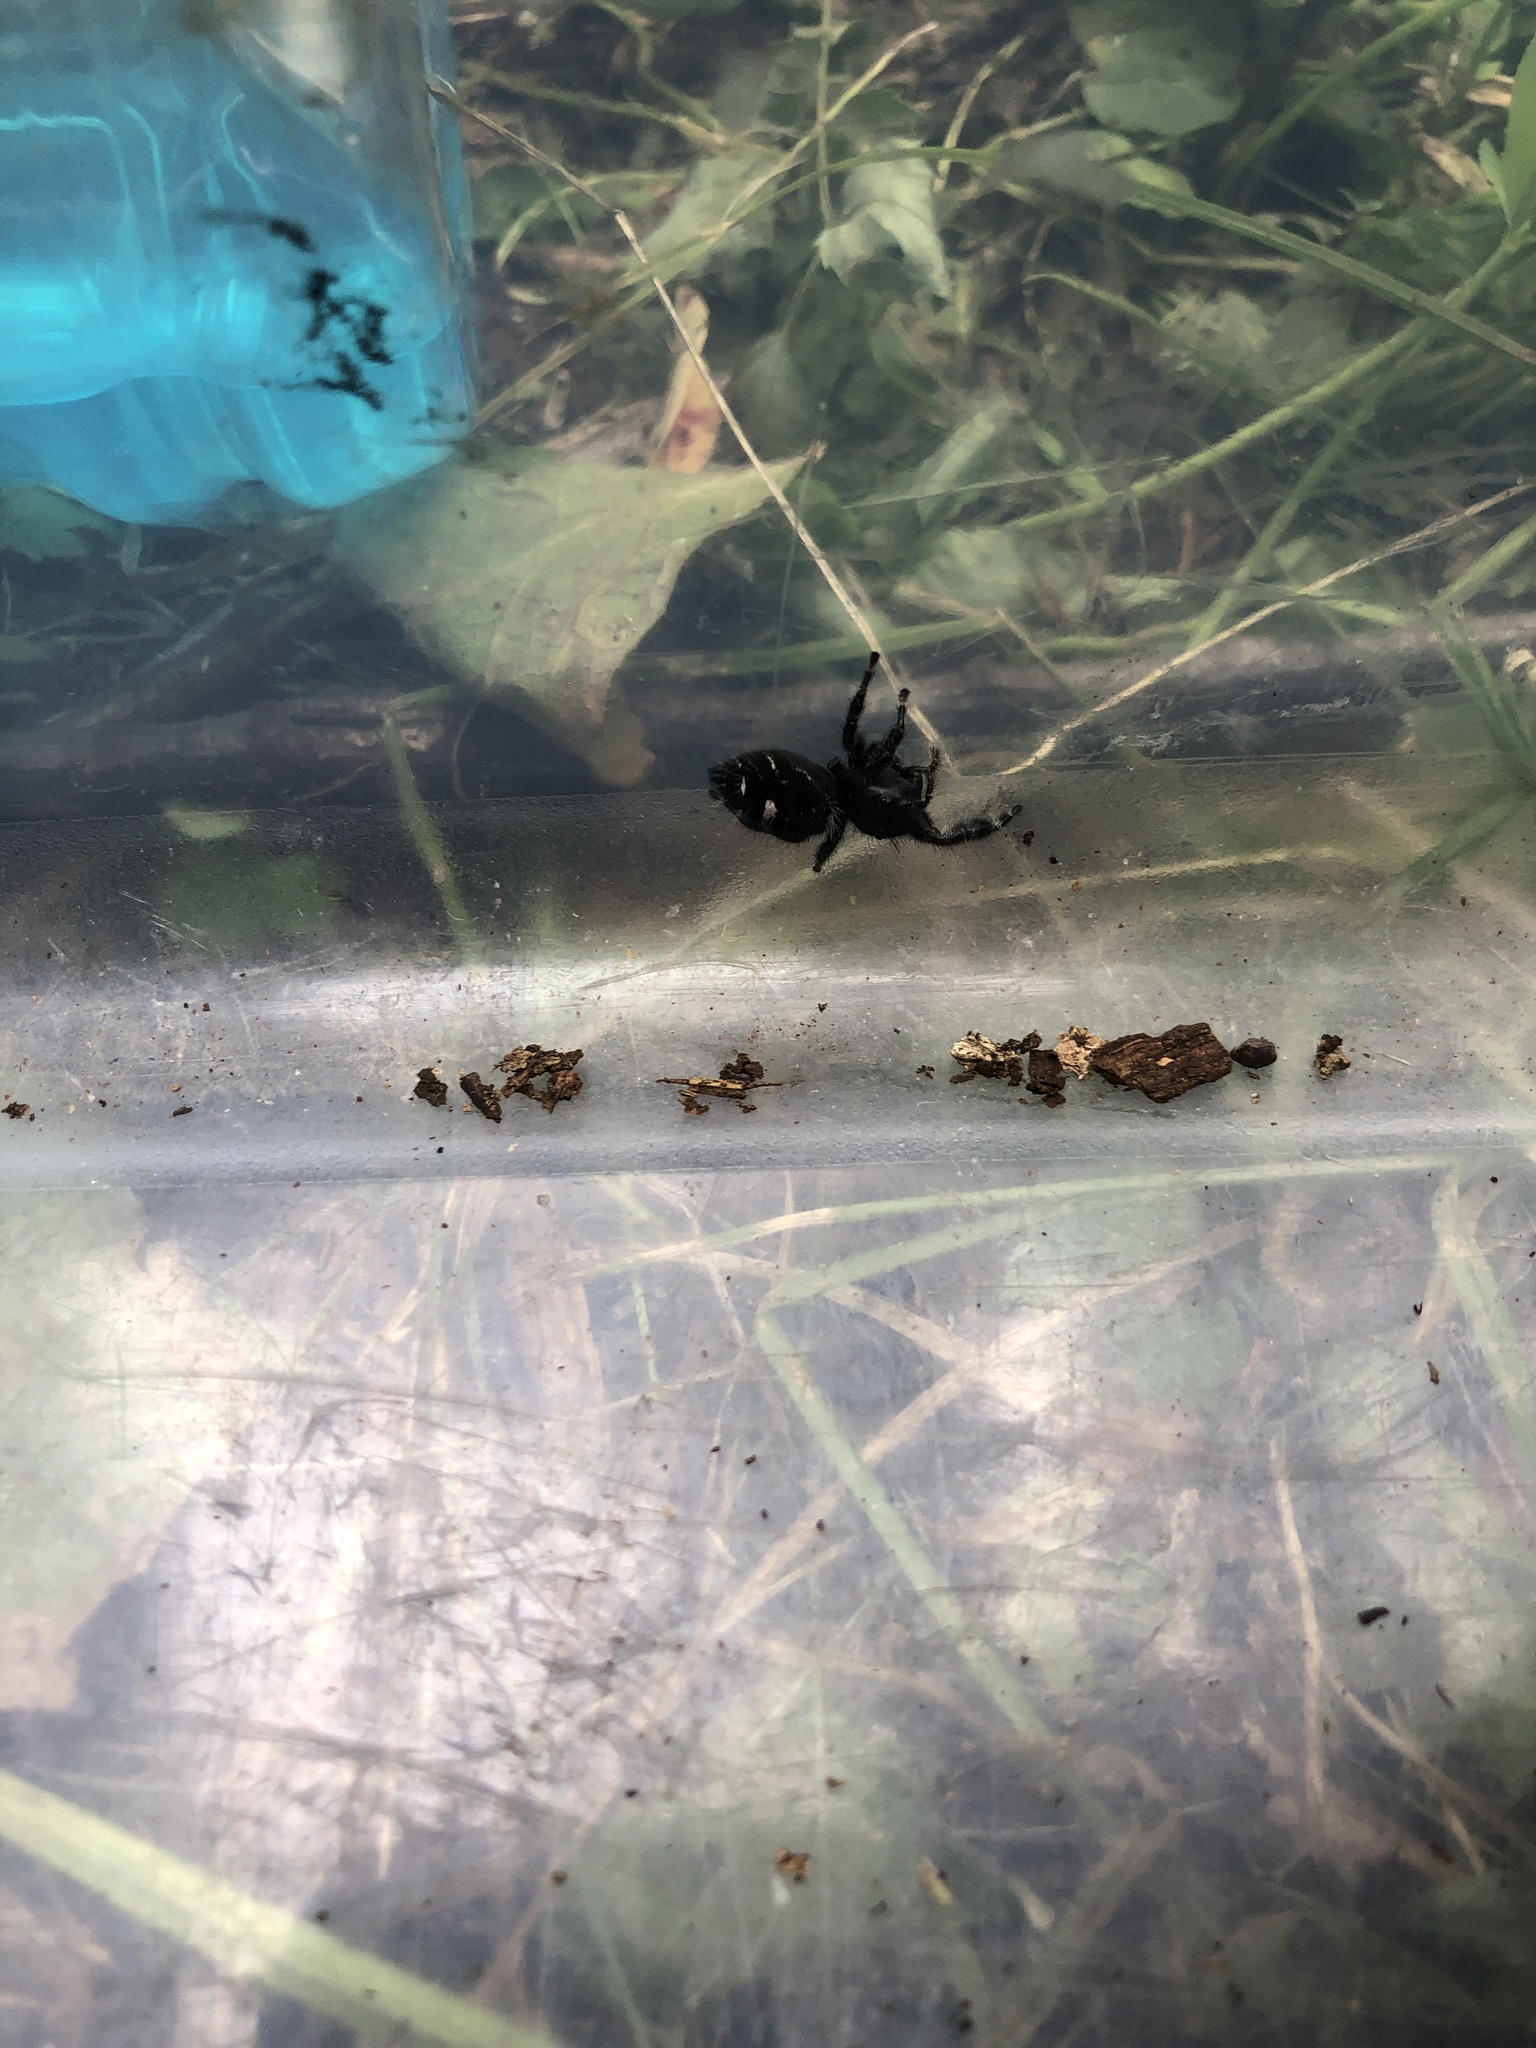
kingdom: Animalia
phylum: Arthropoda
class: Arachnida
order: Araneae
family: Salticidae
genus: Phidippus
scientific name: Phidippus audax
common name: Bold jumper
